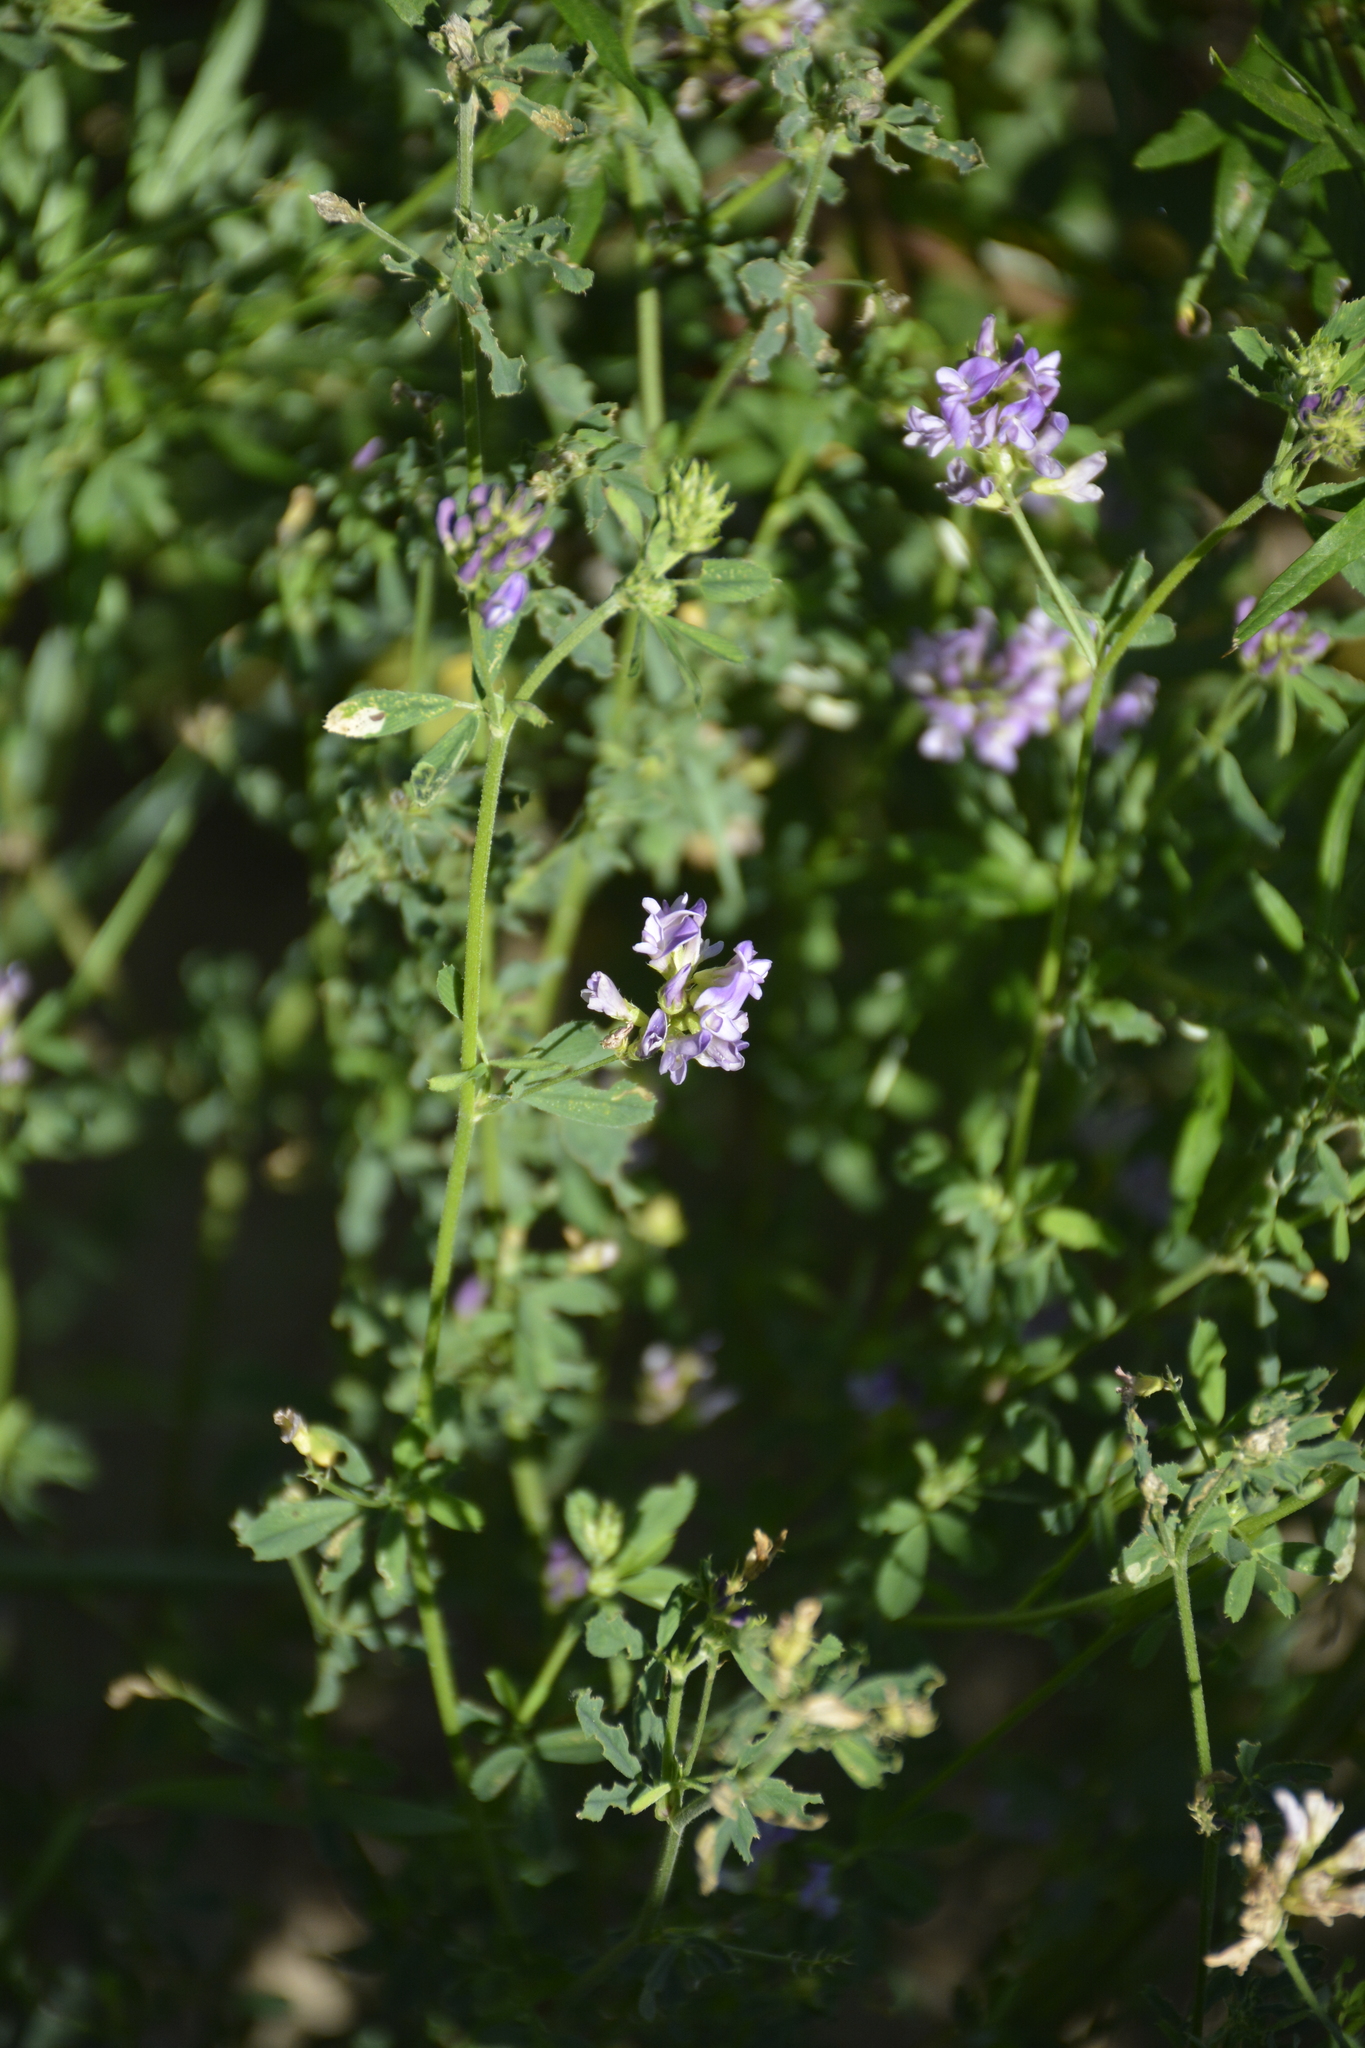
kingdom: Plantae
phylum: Tracheophyta
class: Magnoliopsida
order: Fabales
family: Fabaceae
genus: Medicago
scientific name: Medicago varia
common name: Sand lucerne
